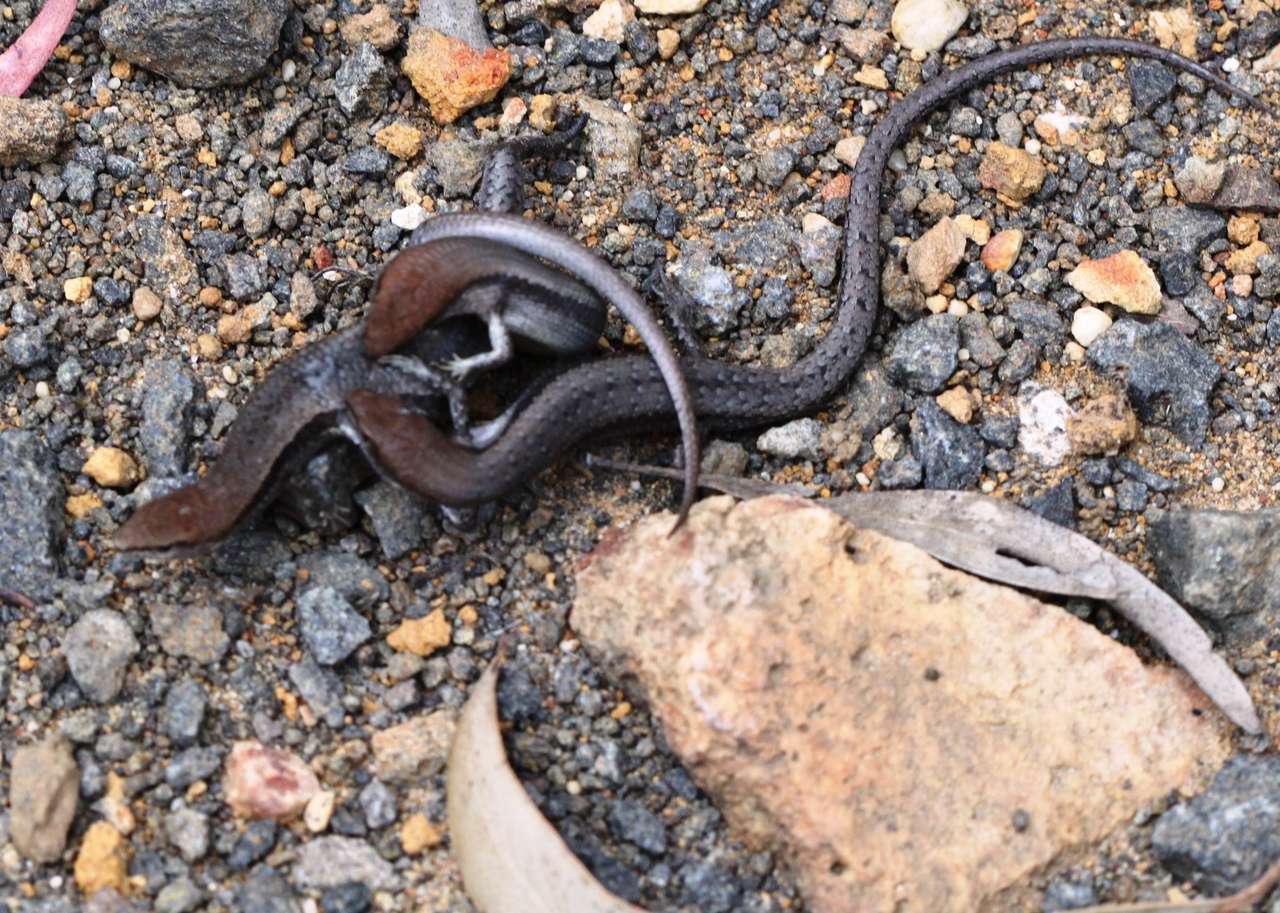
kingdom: Animalia
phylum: Chordata
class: Squamata
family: Scincidae
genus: Lampropholis
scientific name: Lampropholis guichenoti
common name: Garden skink
